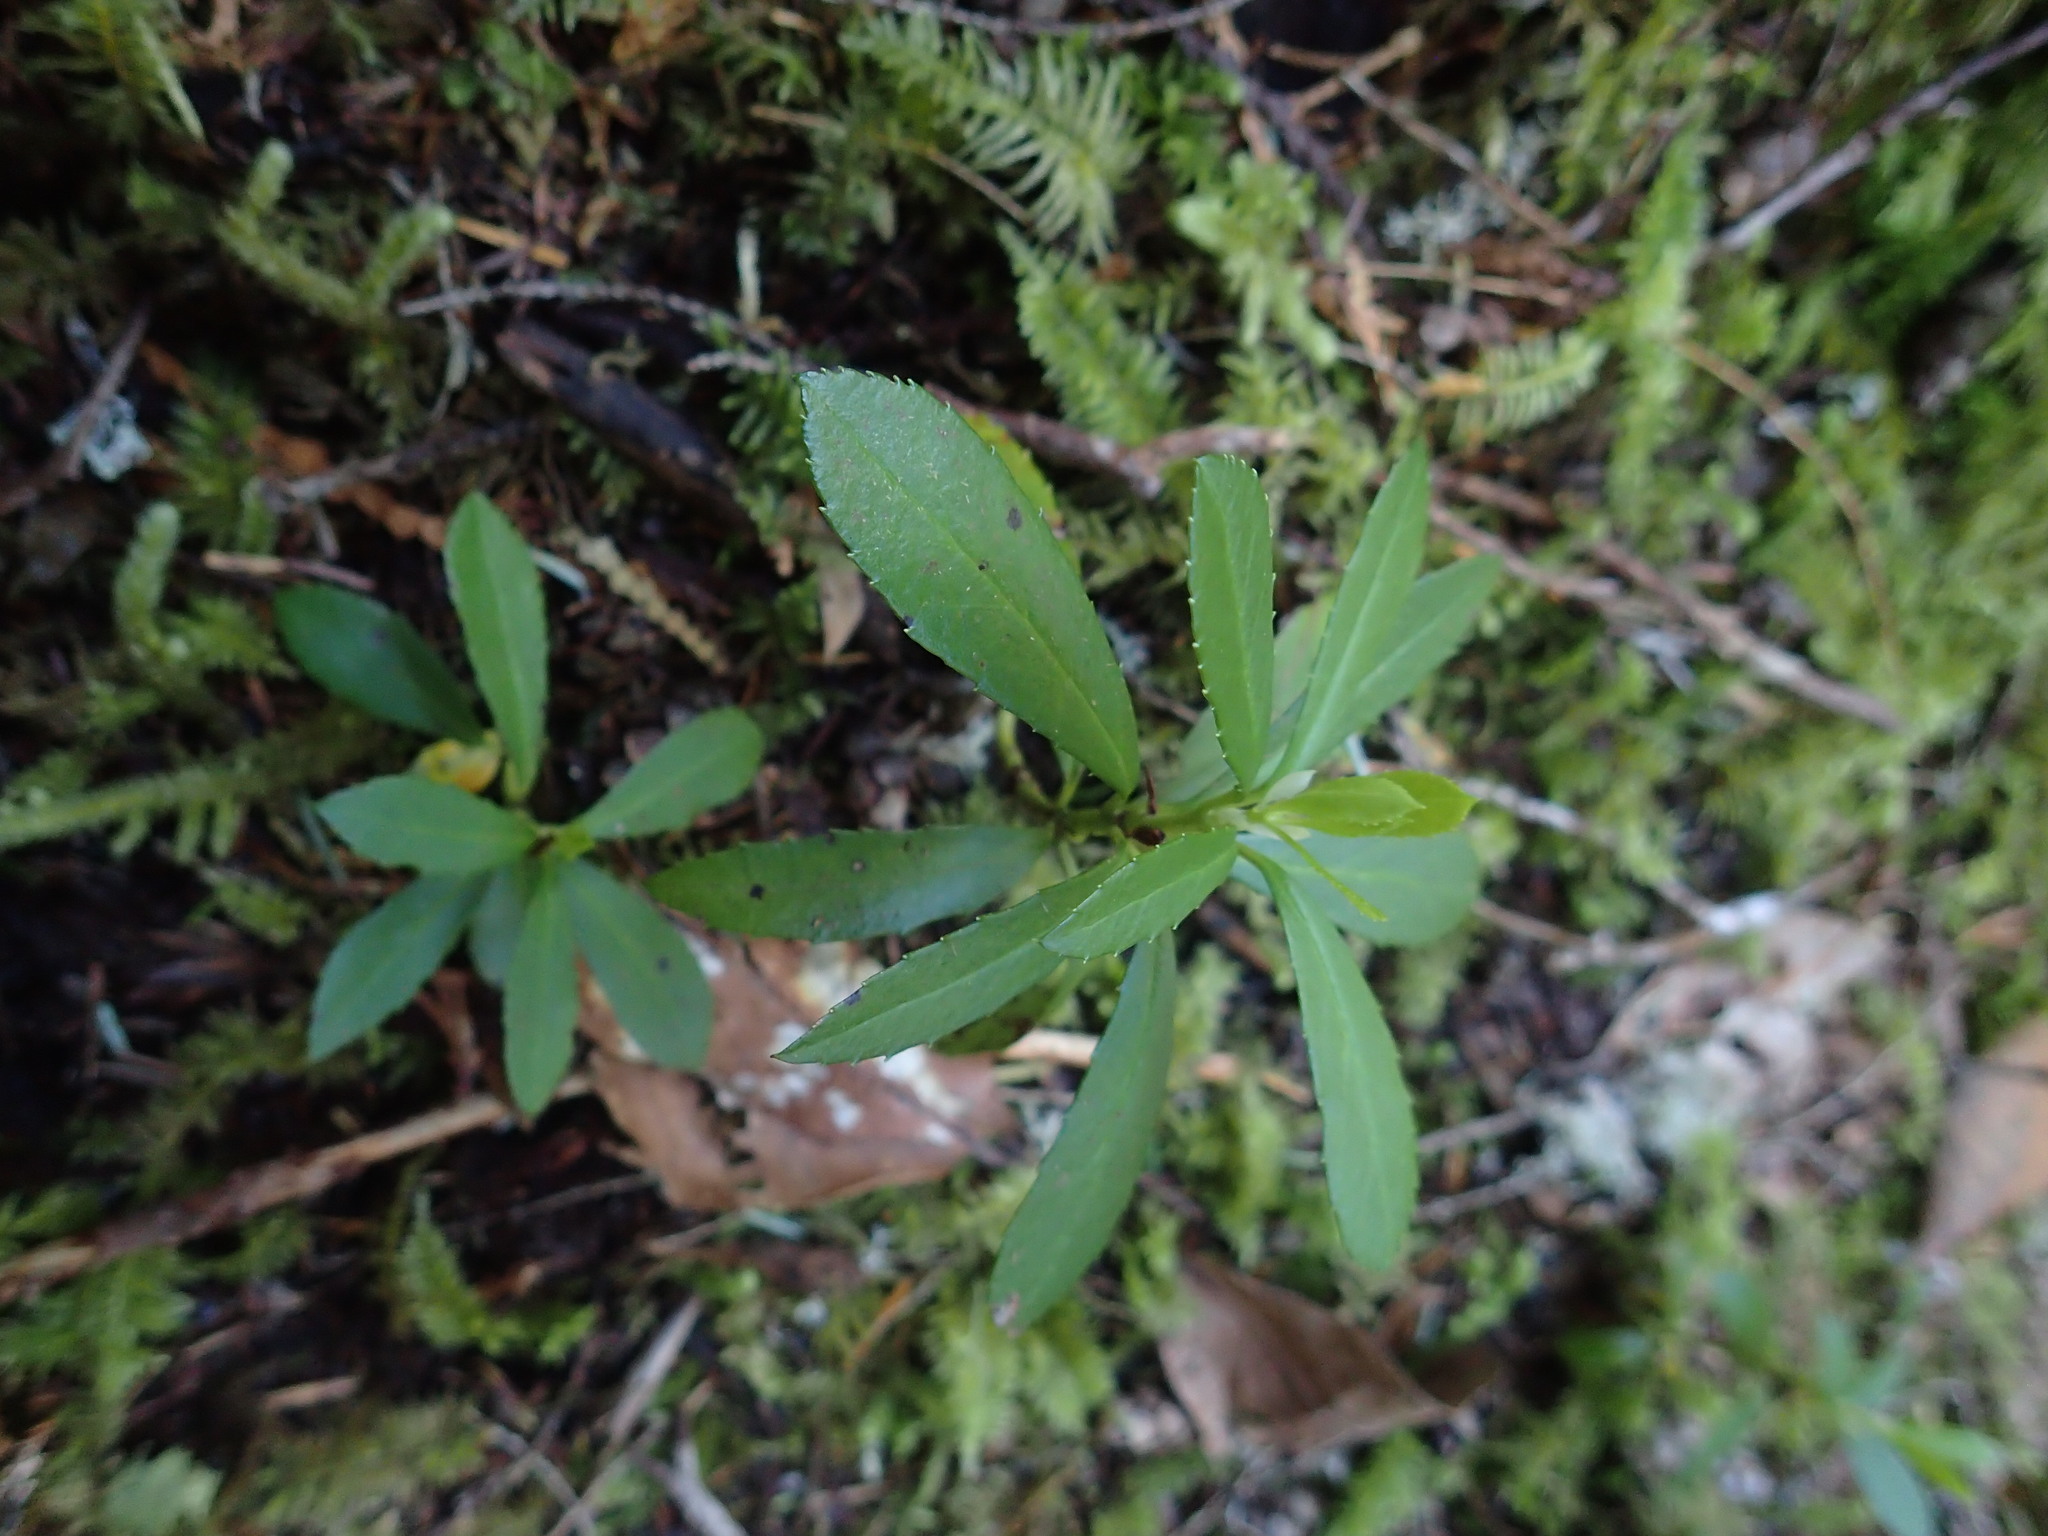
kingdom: Plantae
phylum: Tracheophyta
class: Magnoliopsida
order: Ericales
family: Ericaceae
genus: Chimaphila
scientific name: Chimaphila umbellata
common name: Pipsissewa
